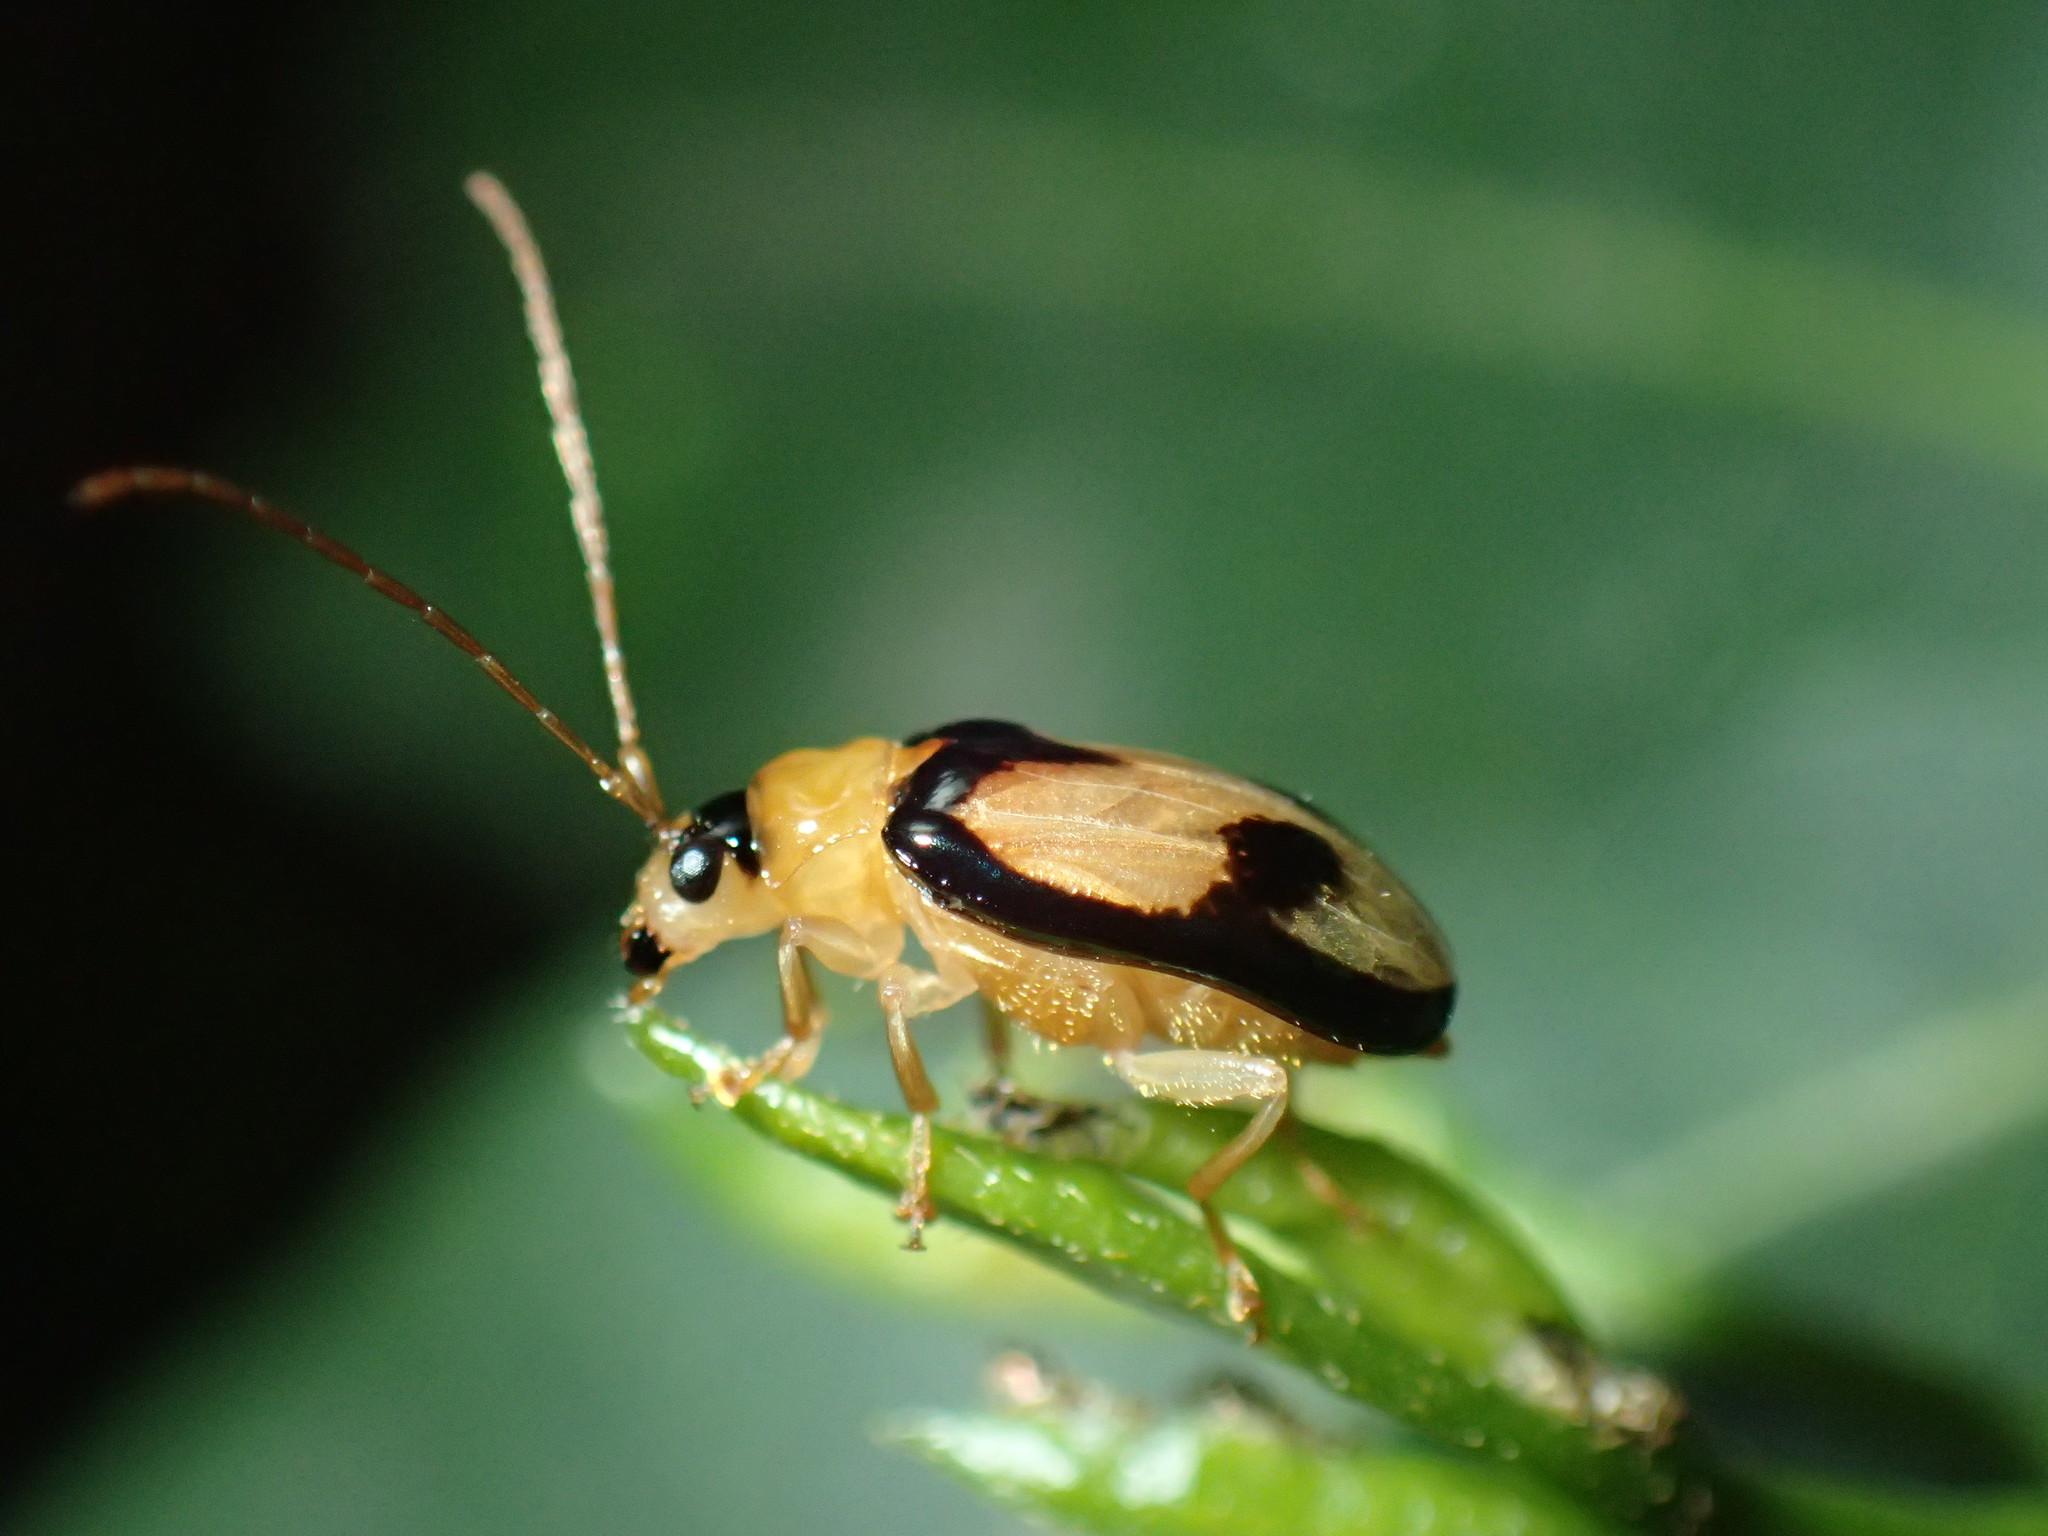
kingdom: Animalia
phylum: Arthropoda
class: Insecta
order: Coleoptera
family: Chrysomelidae
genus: Spilocephalus
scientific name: Spilocephalus
